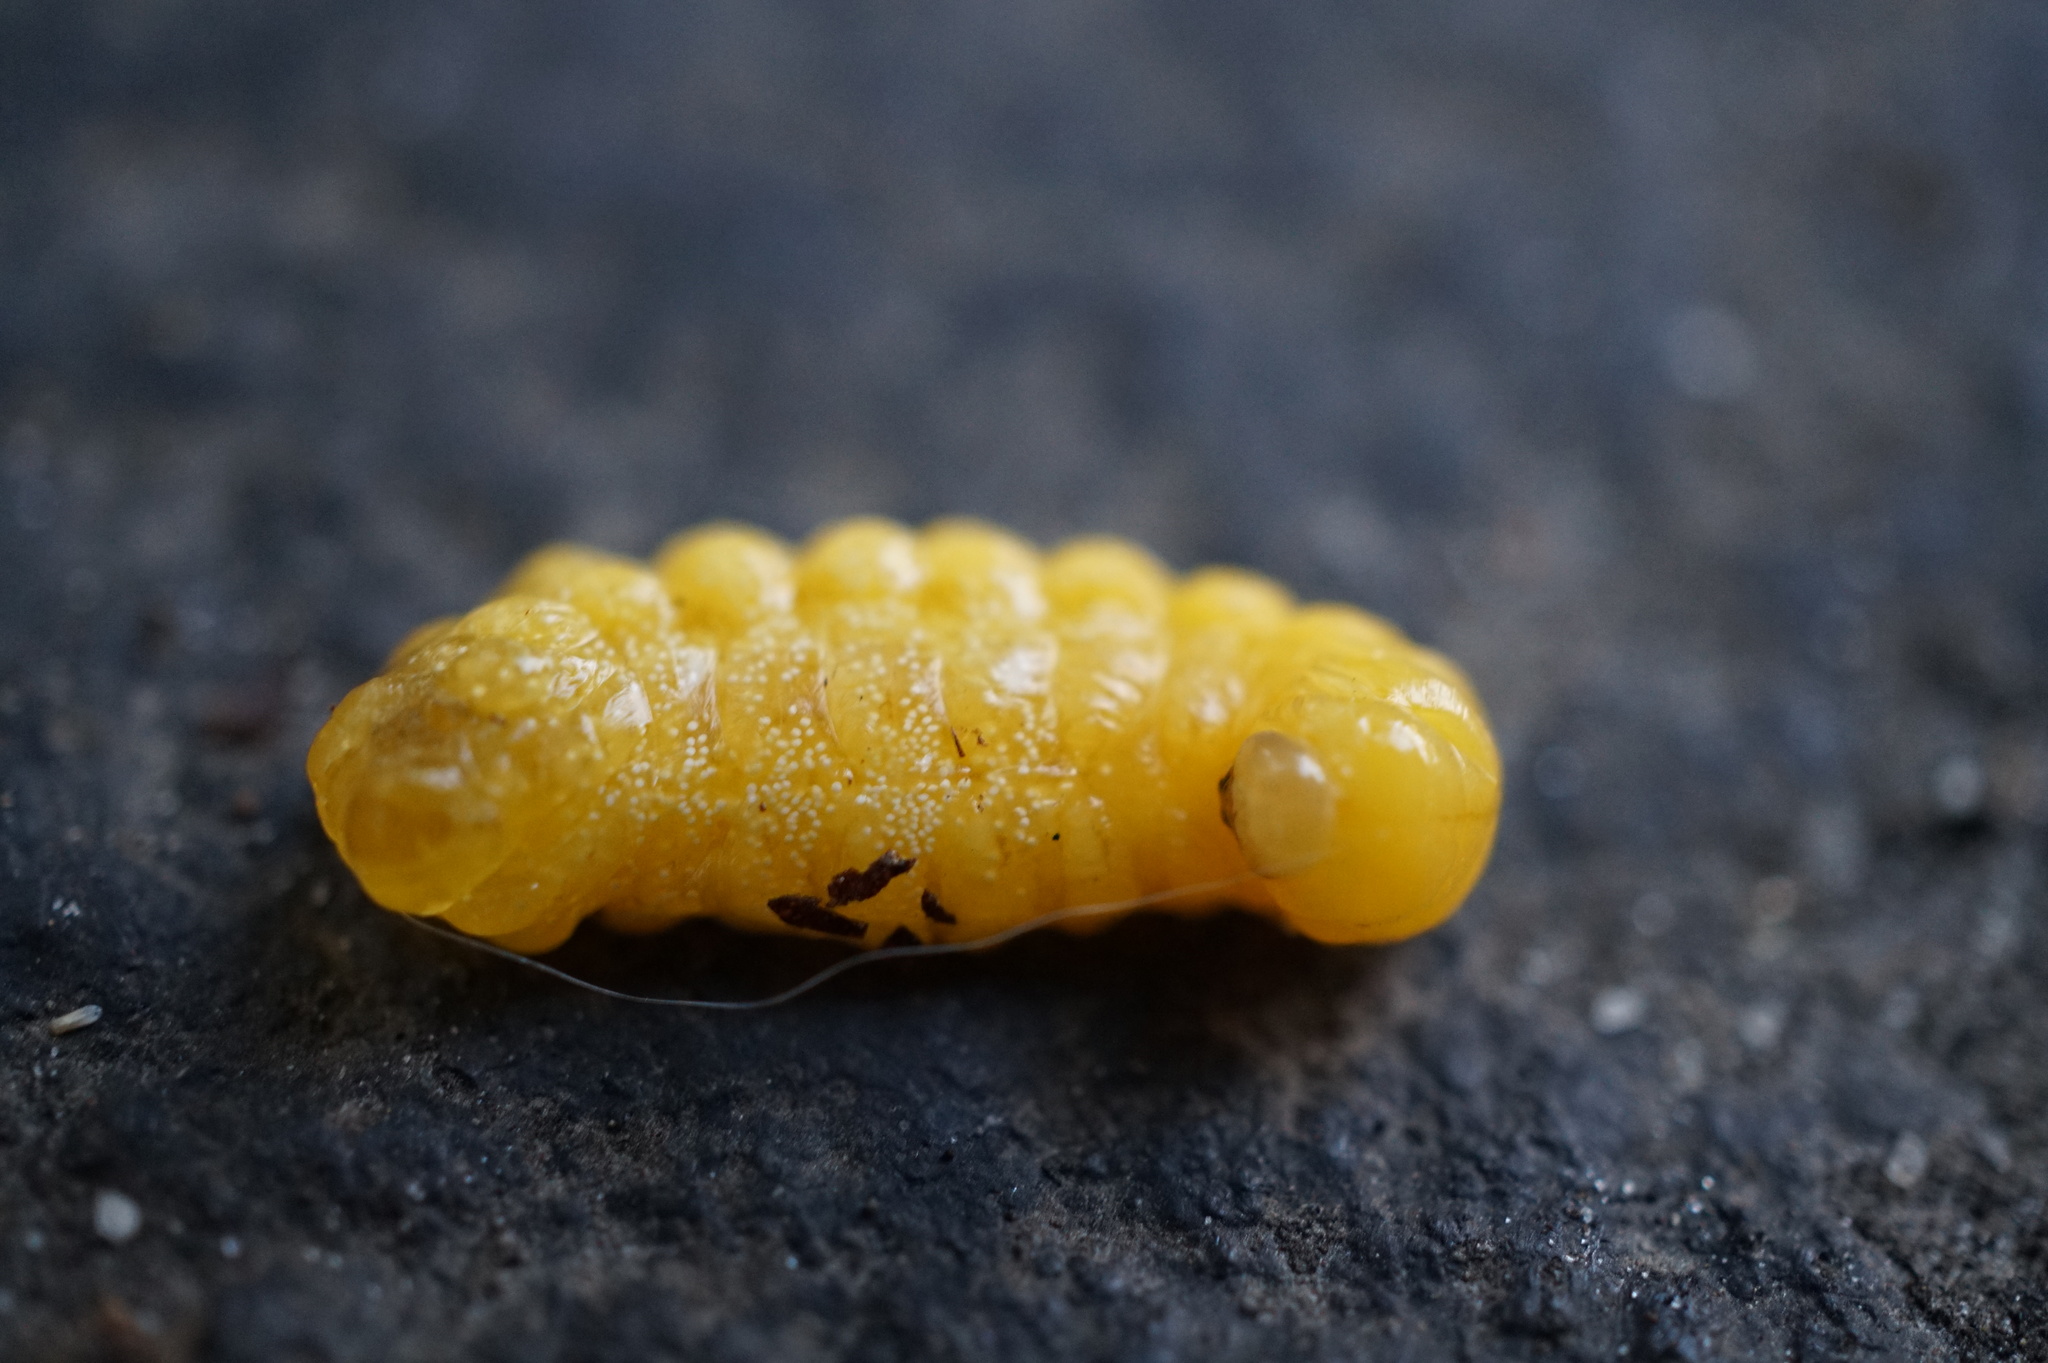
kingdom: Animalia
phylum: Arthropoda
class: Insecta
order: Hymenoptera
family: Crabronidae
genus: Trypoxylon
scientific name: Trypoxylon politum
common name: Organ-pipe mud-dauber wasp
